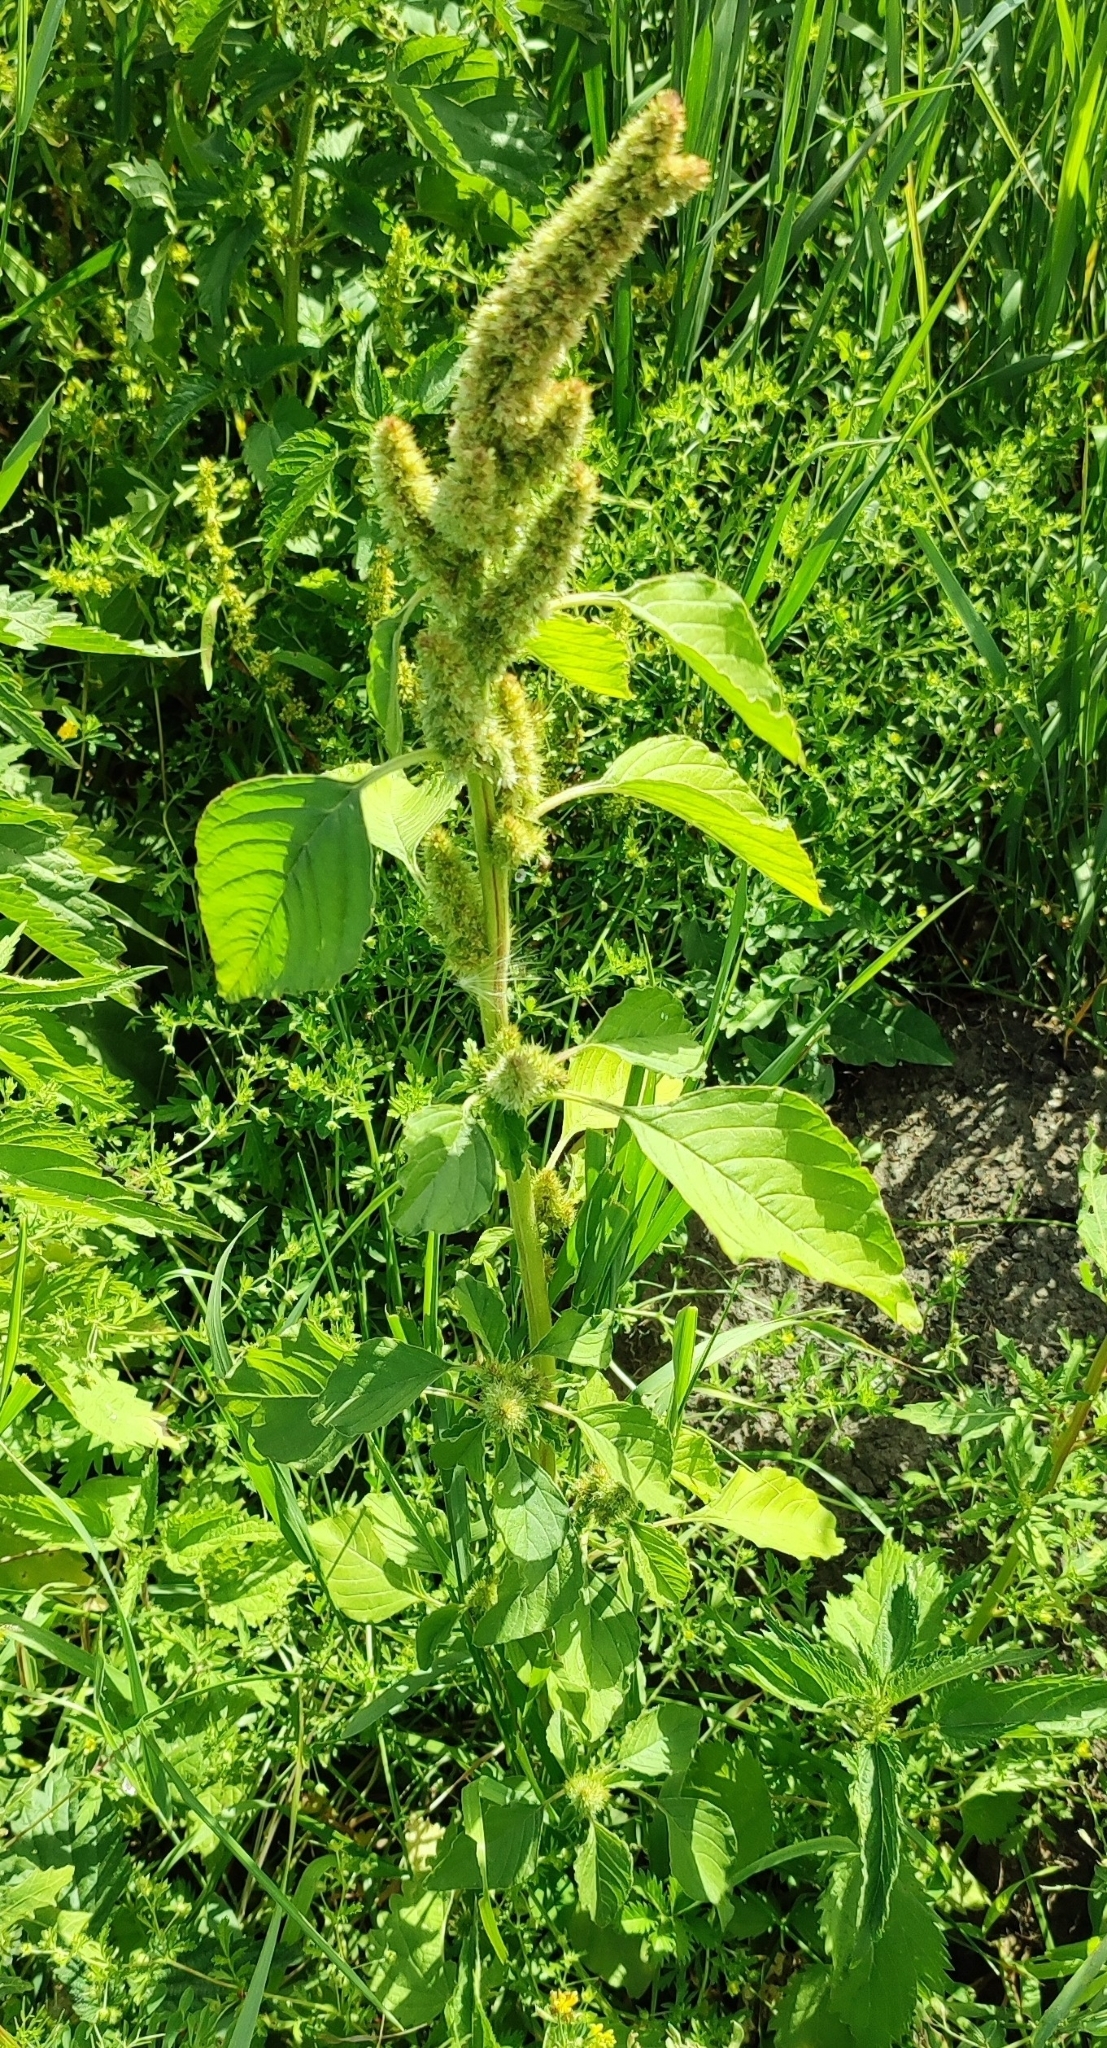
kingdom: Plantae
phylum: Tracheophyta
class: Magnoliopsida
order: Caryophyllales
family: Amaranthaceae
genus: Amaranthus
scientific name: Amaranthus retroflexus
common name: Redroot amaranth
